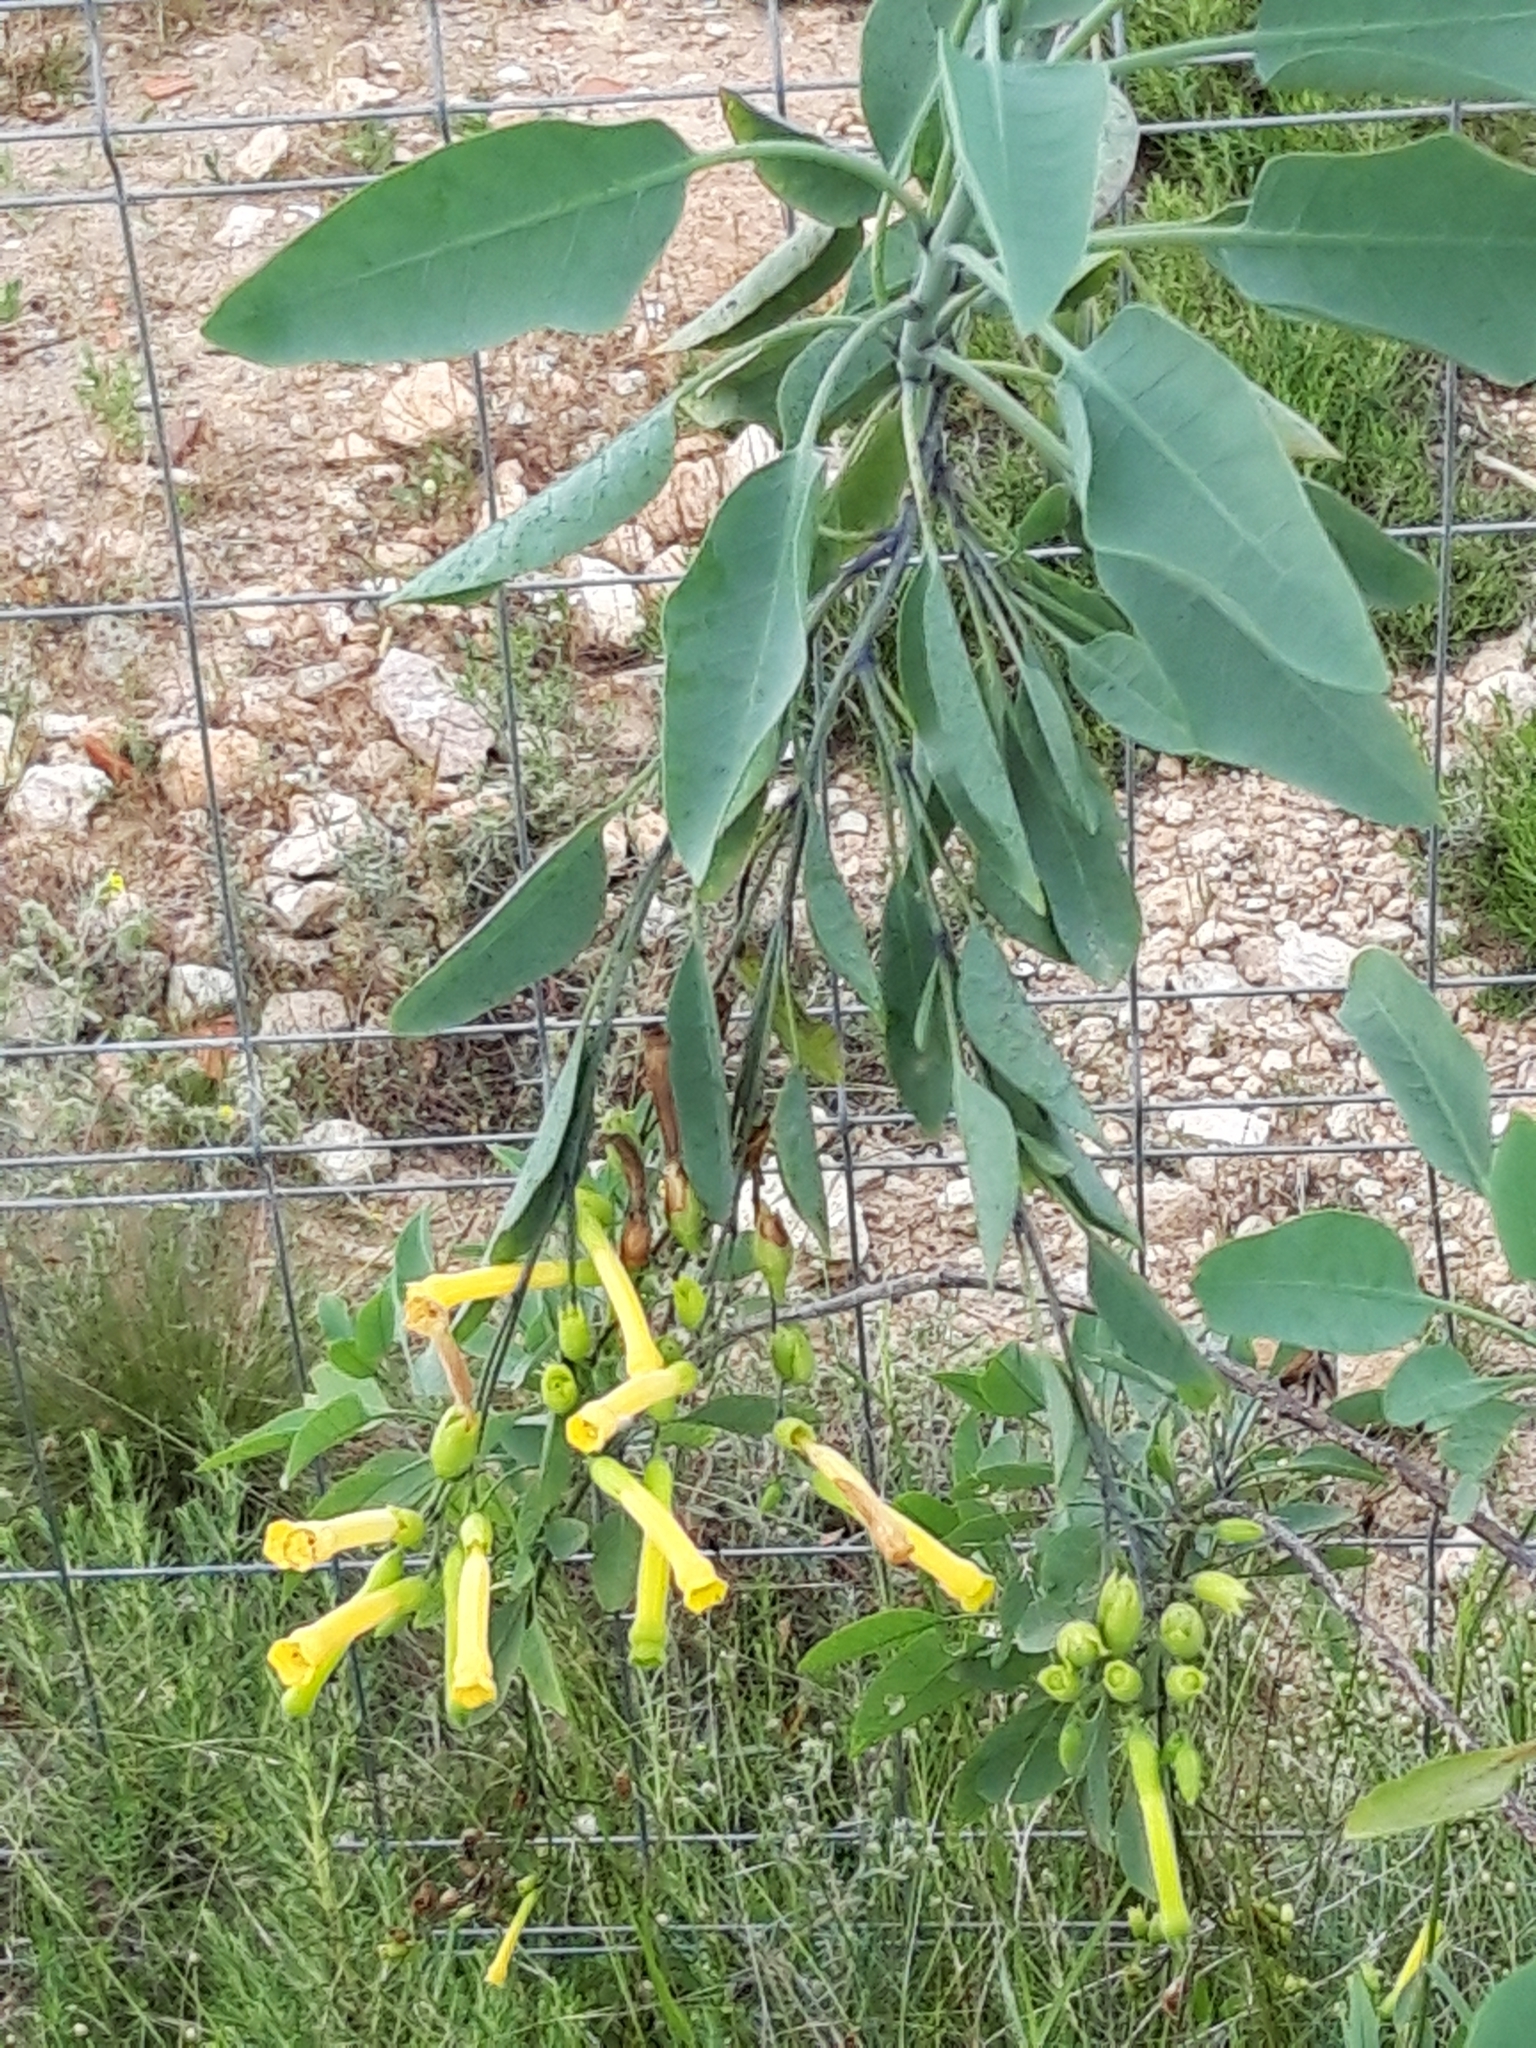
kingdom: Plantae
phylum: Tracheophyta
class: Magnoliopsida
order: Solanales
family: Solanaceae
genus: Nicotiana
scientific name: Nicotiana glauca
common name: Tree tobacco
